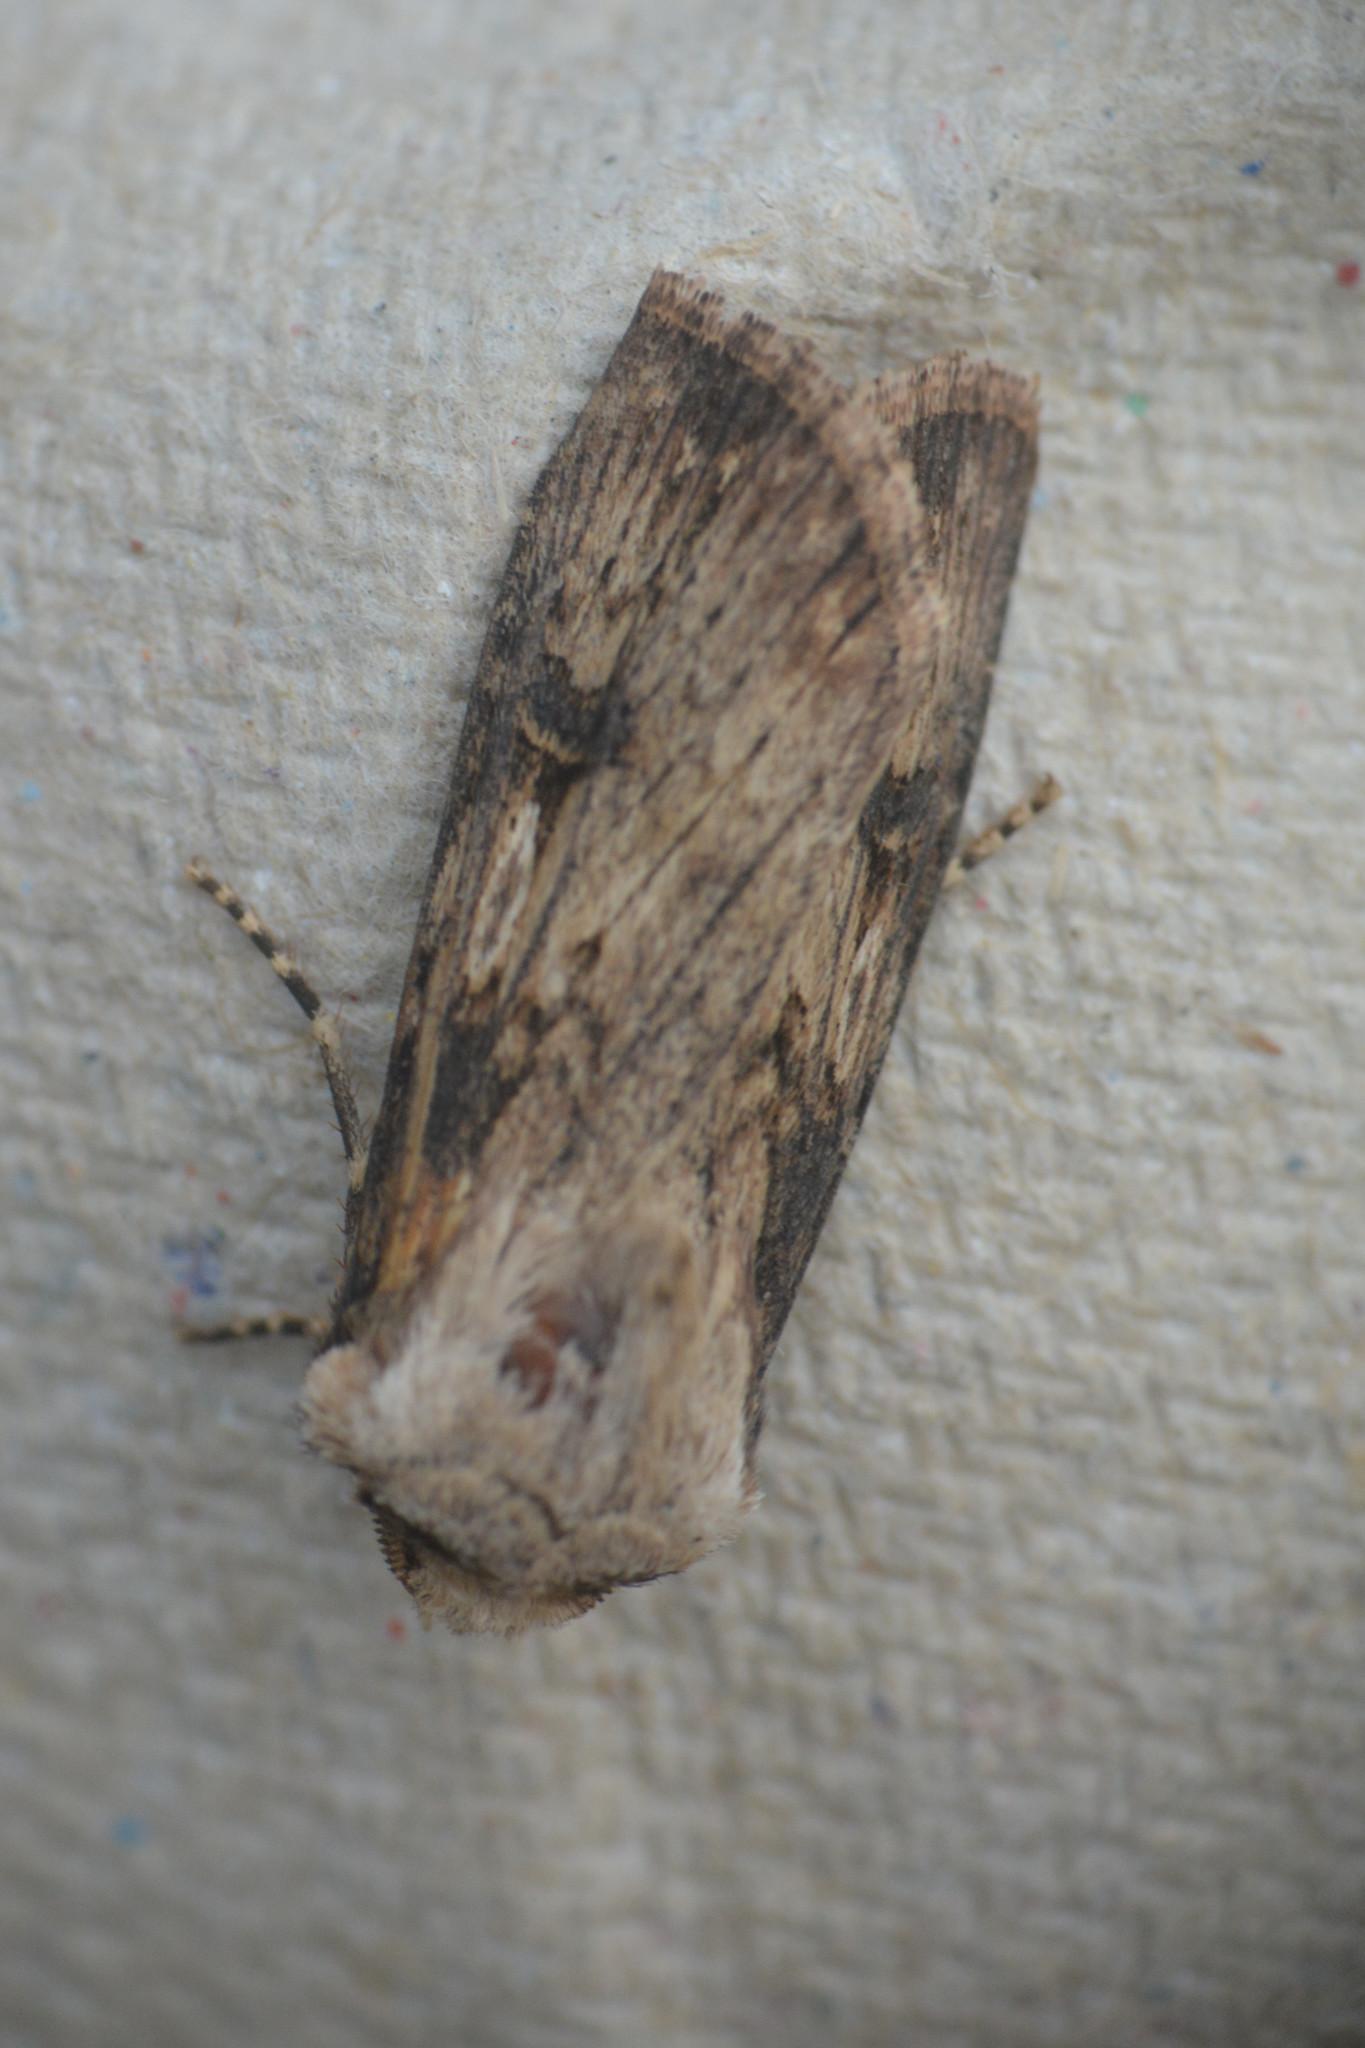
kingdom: Animalia
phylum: Arthropoda
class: Insecta
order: Lepidoptera
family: Noctuidae
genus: Agrotis
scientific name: Agrotis puta
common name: Shuttle-shaped dart
